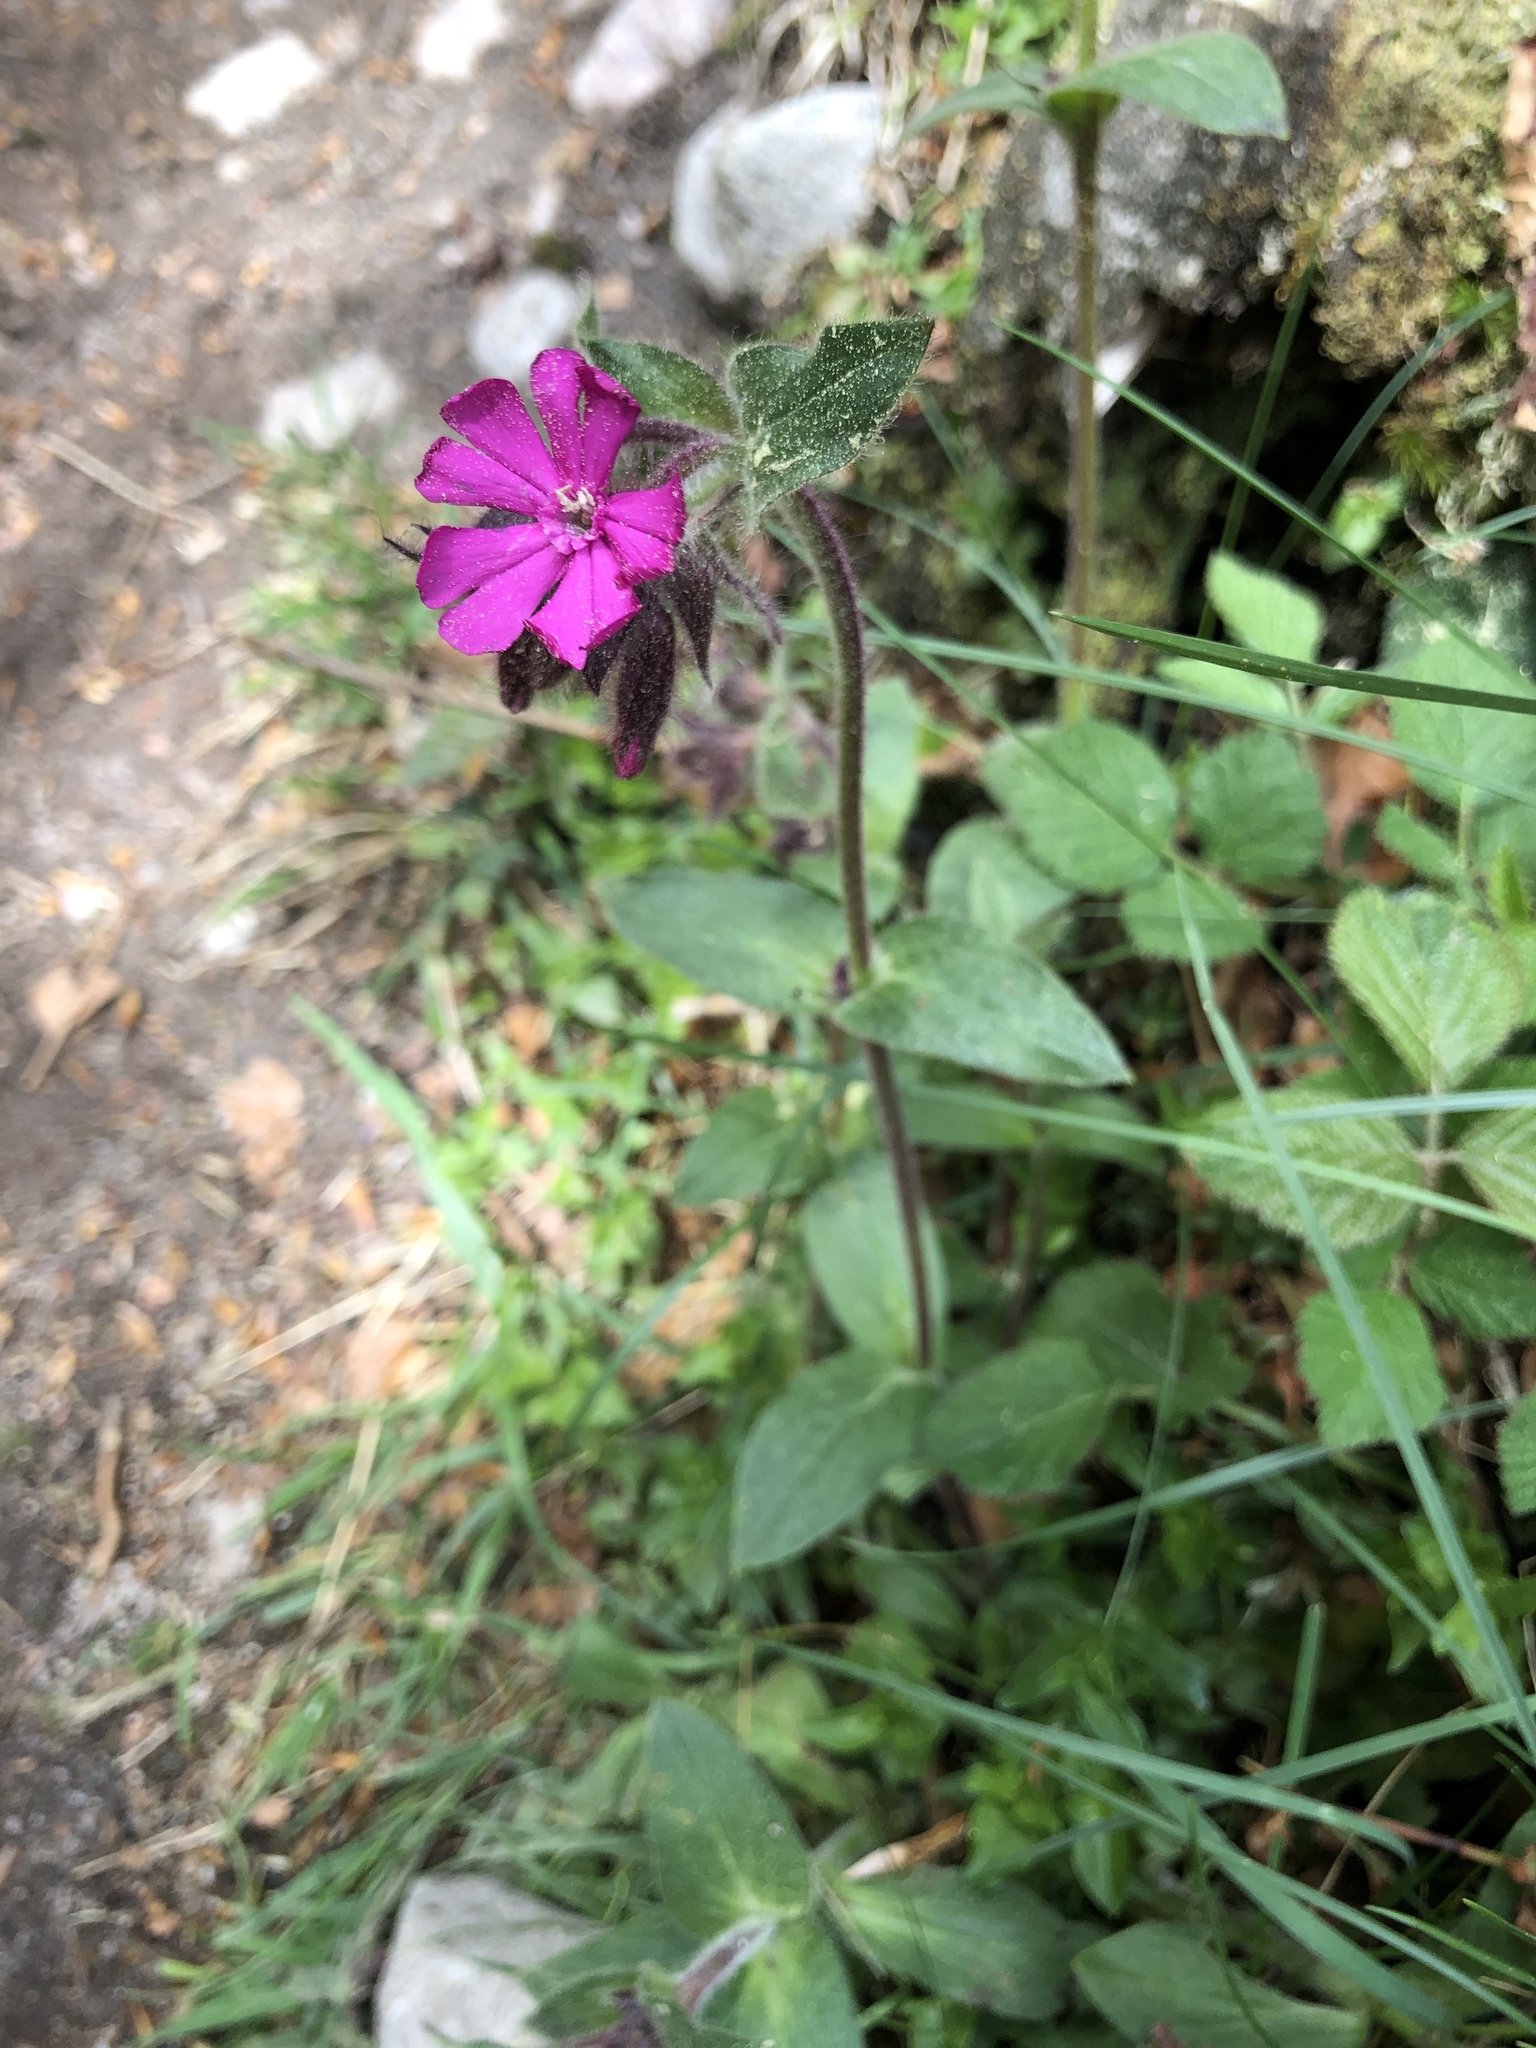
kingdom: Plantae
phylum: Tracheophyta
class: Magnoliopsida
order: Caryophyllales
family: Caryophyllaceae
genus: Silene
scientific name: Silene dioica
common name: Red campion
